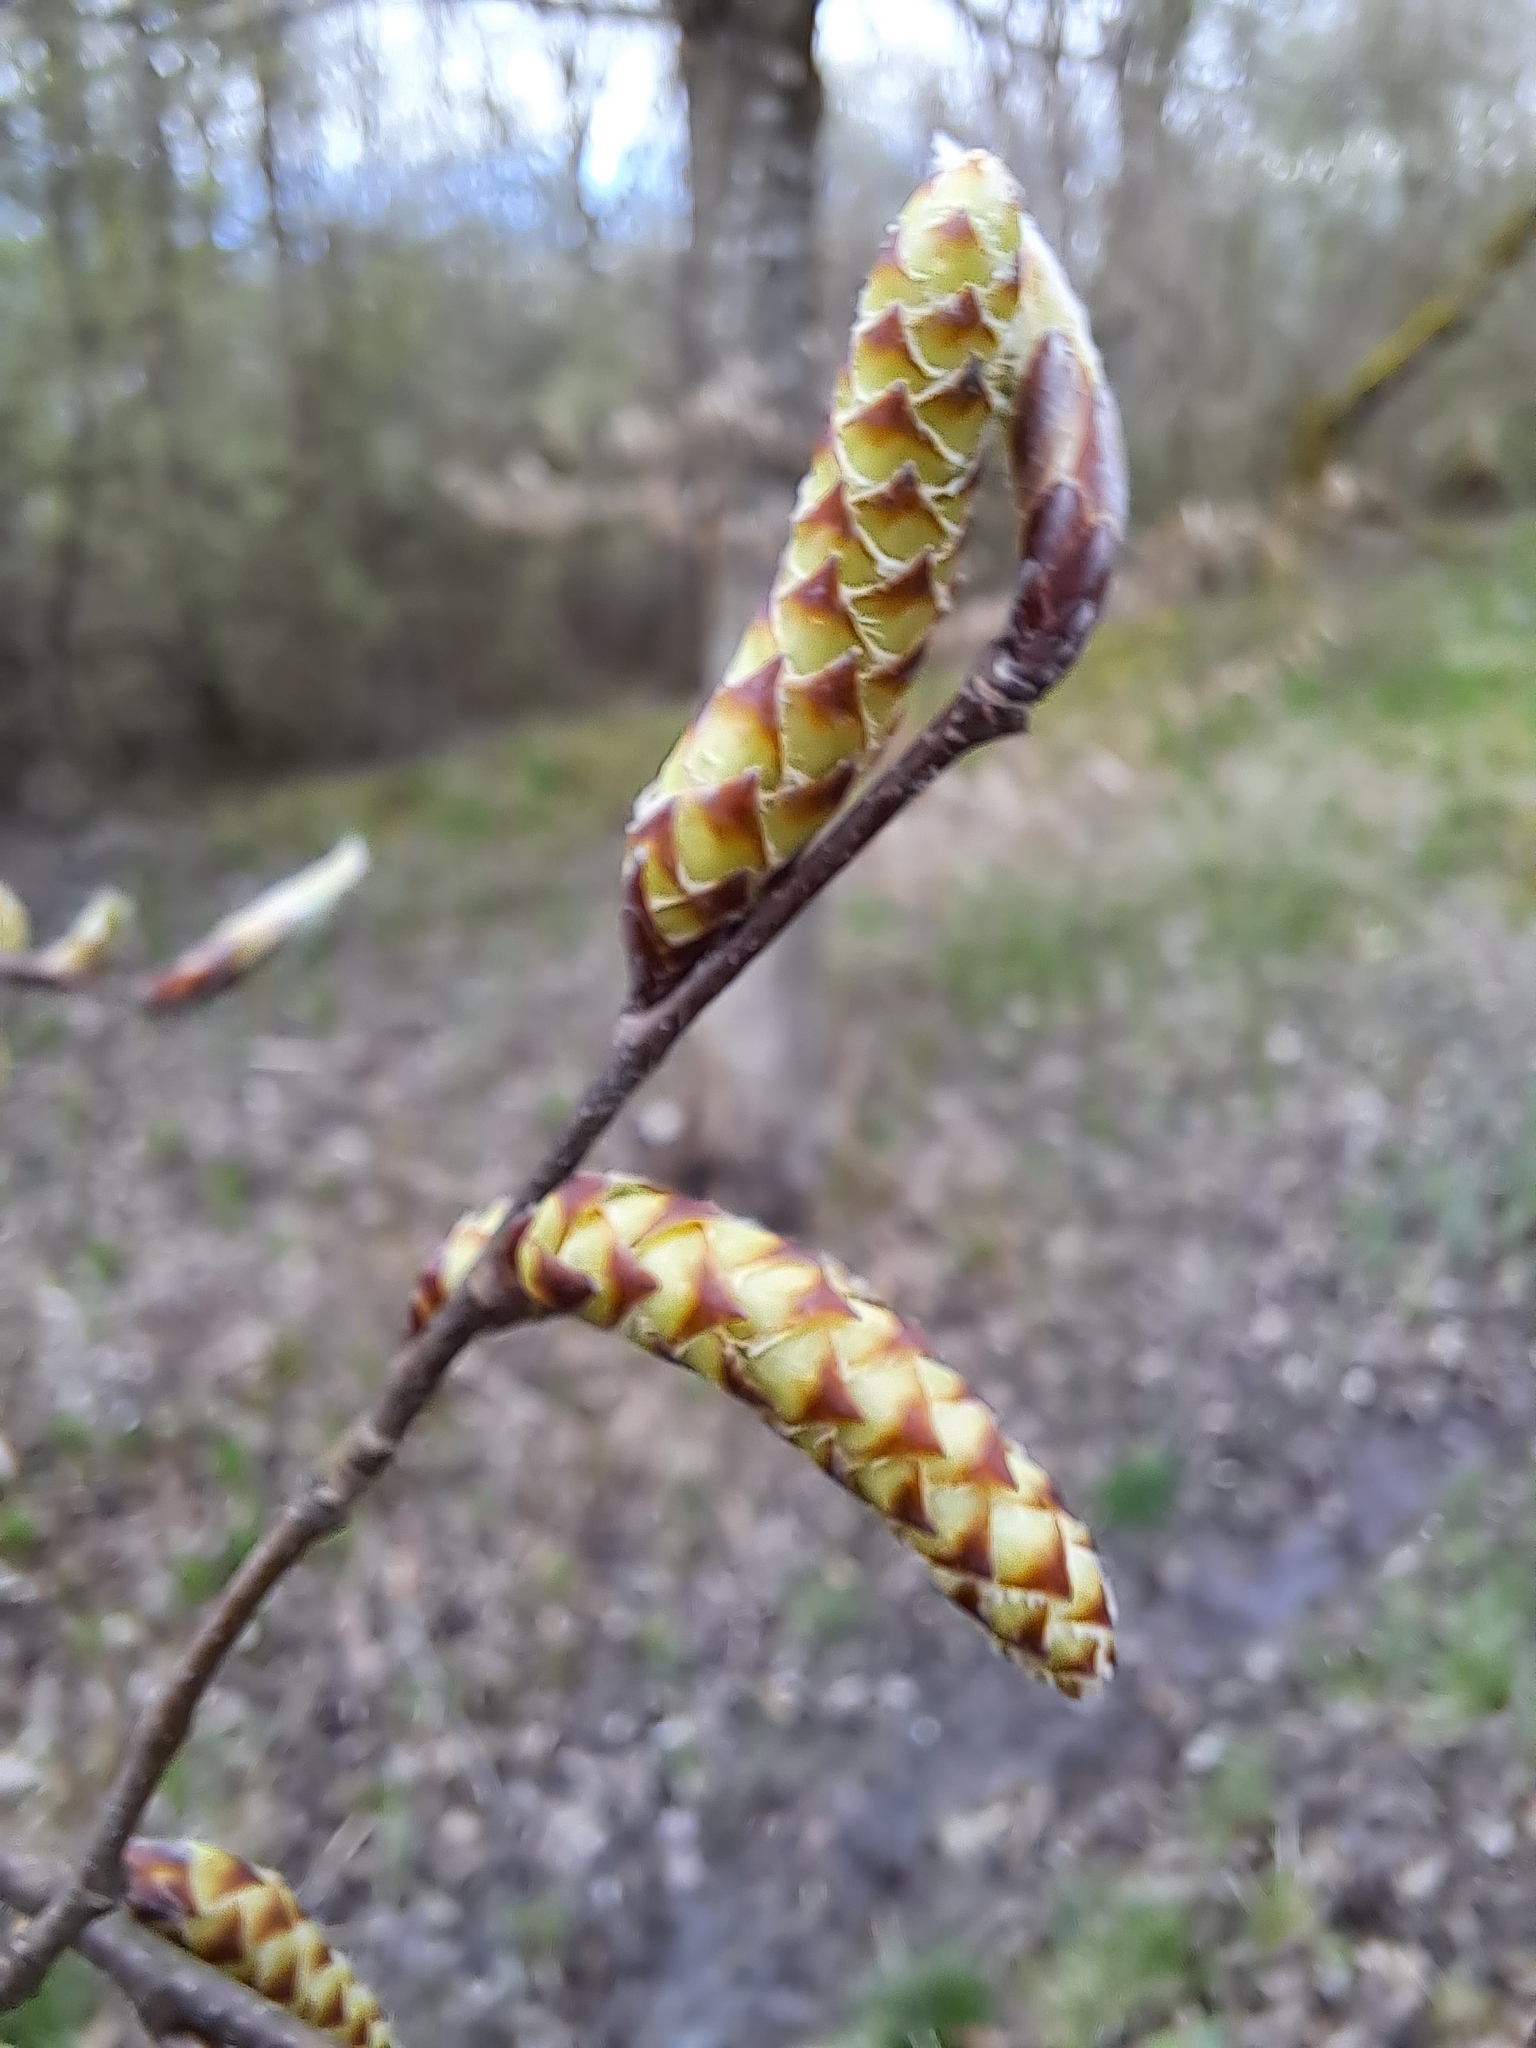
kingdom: Plantae
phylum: Tracheophyta
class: Magnoliopsida
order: Fagales
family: Betulaceae
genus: Carpinus
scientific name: Carpinus betulus
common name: Hornbeam
